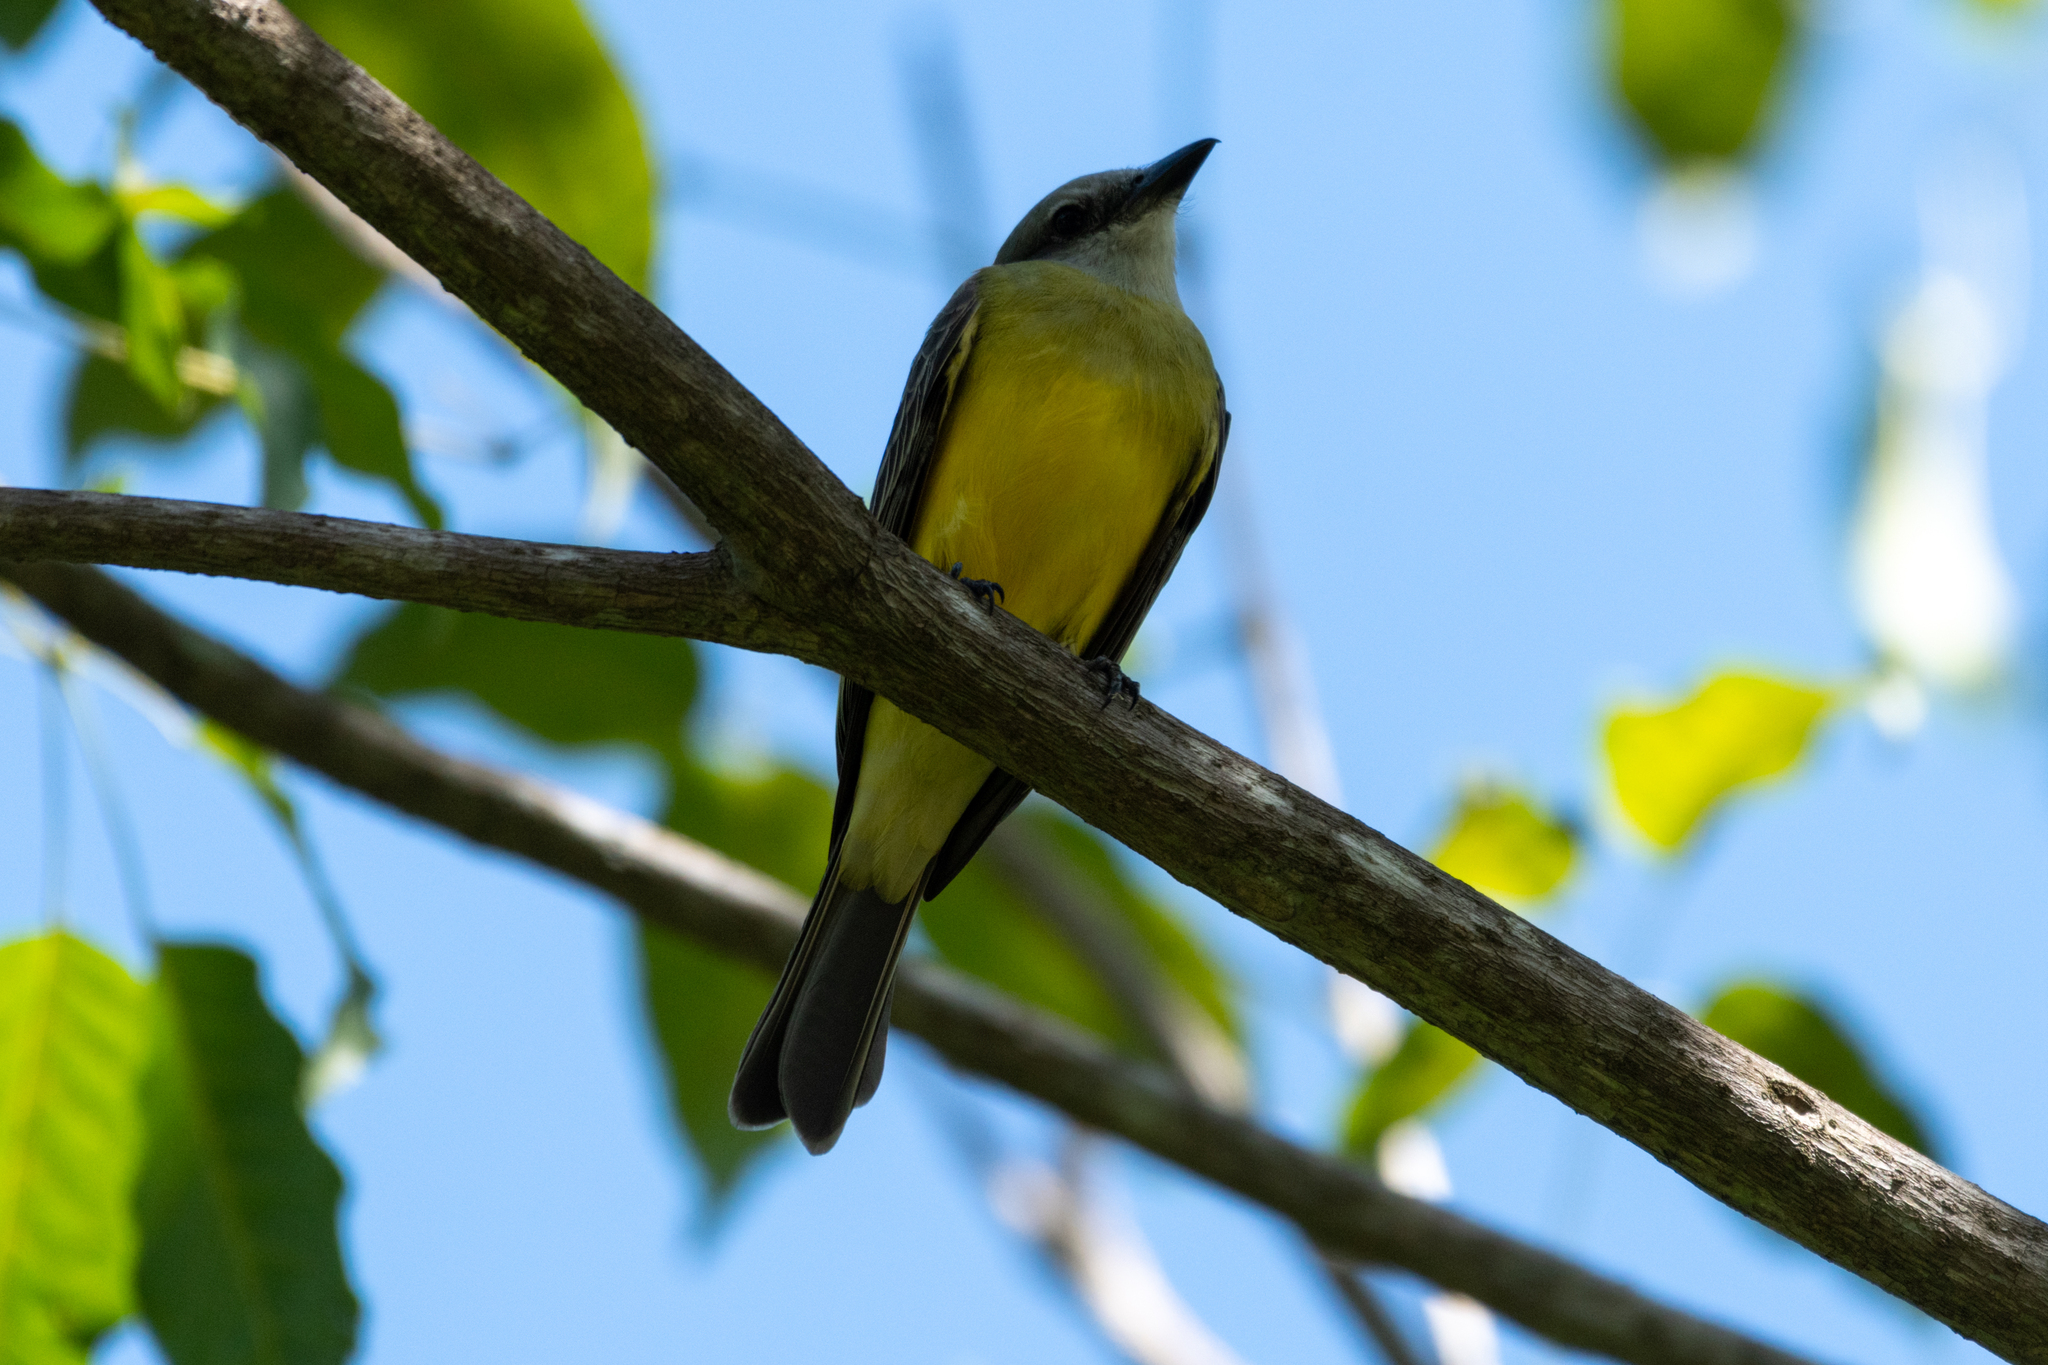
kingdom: Animalia
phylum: Chordata
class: Aves
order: Passeriformes
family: Tyrannidae
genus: Tyrannus
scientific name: Tyrannus melancholicus
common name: Tropical kingbird
